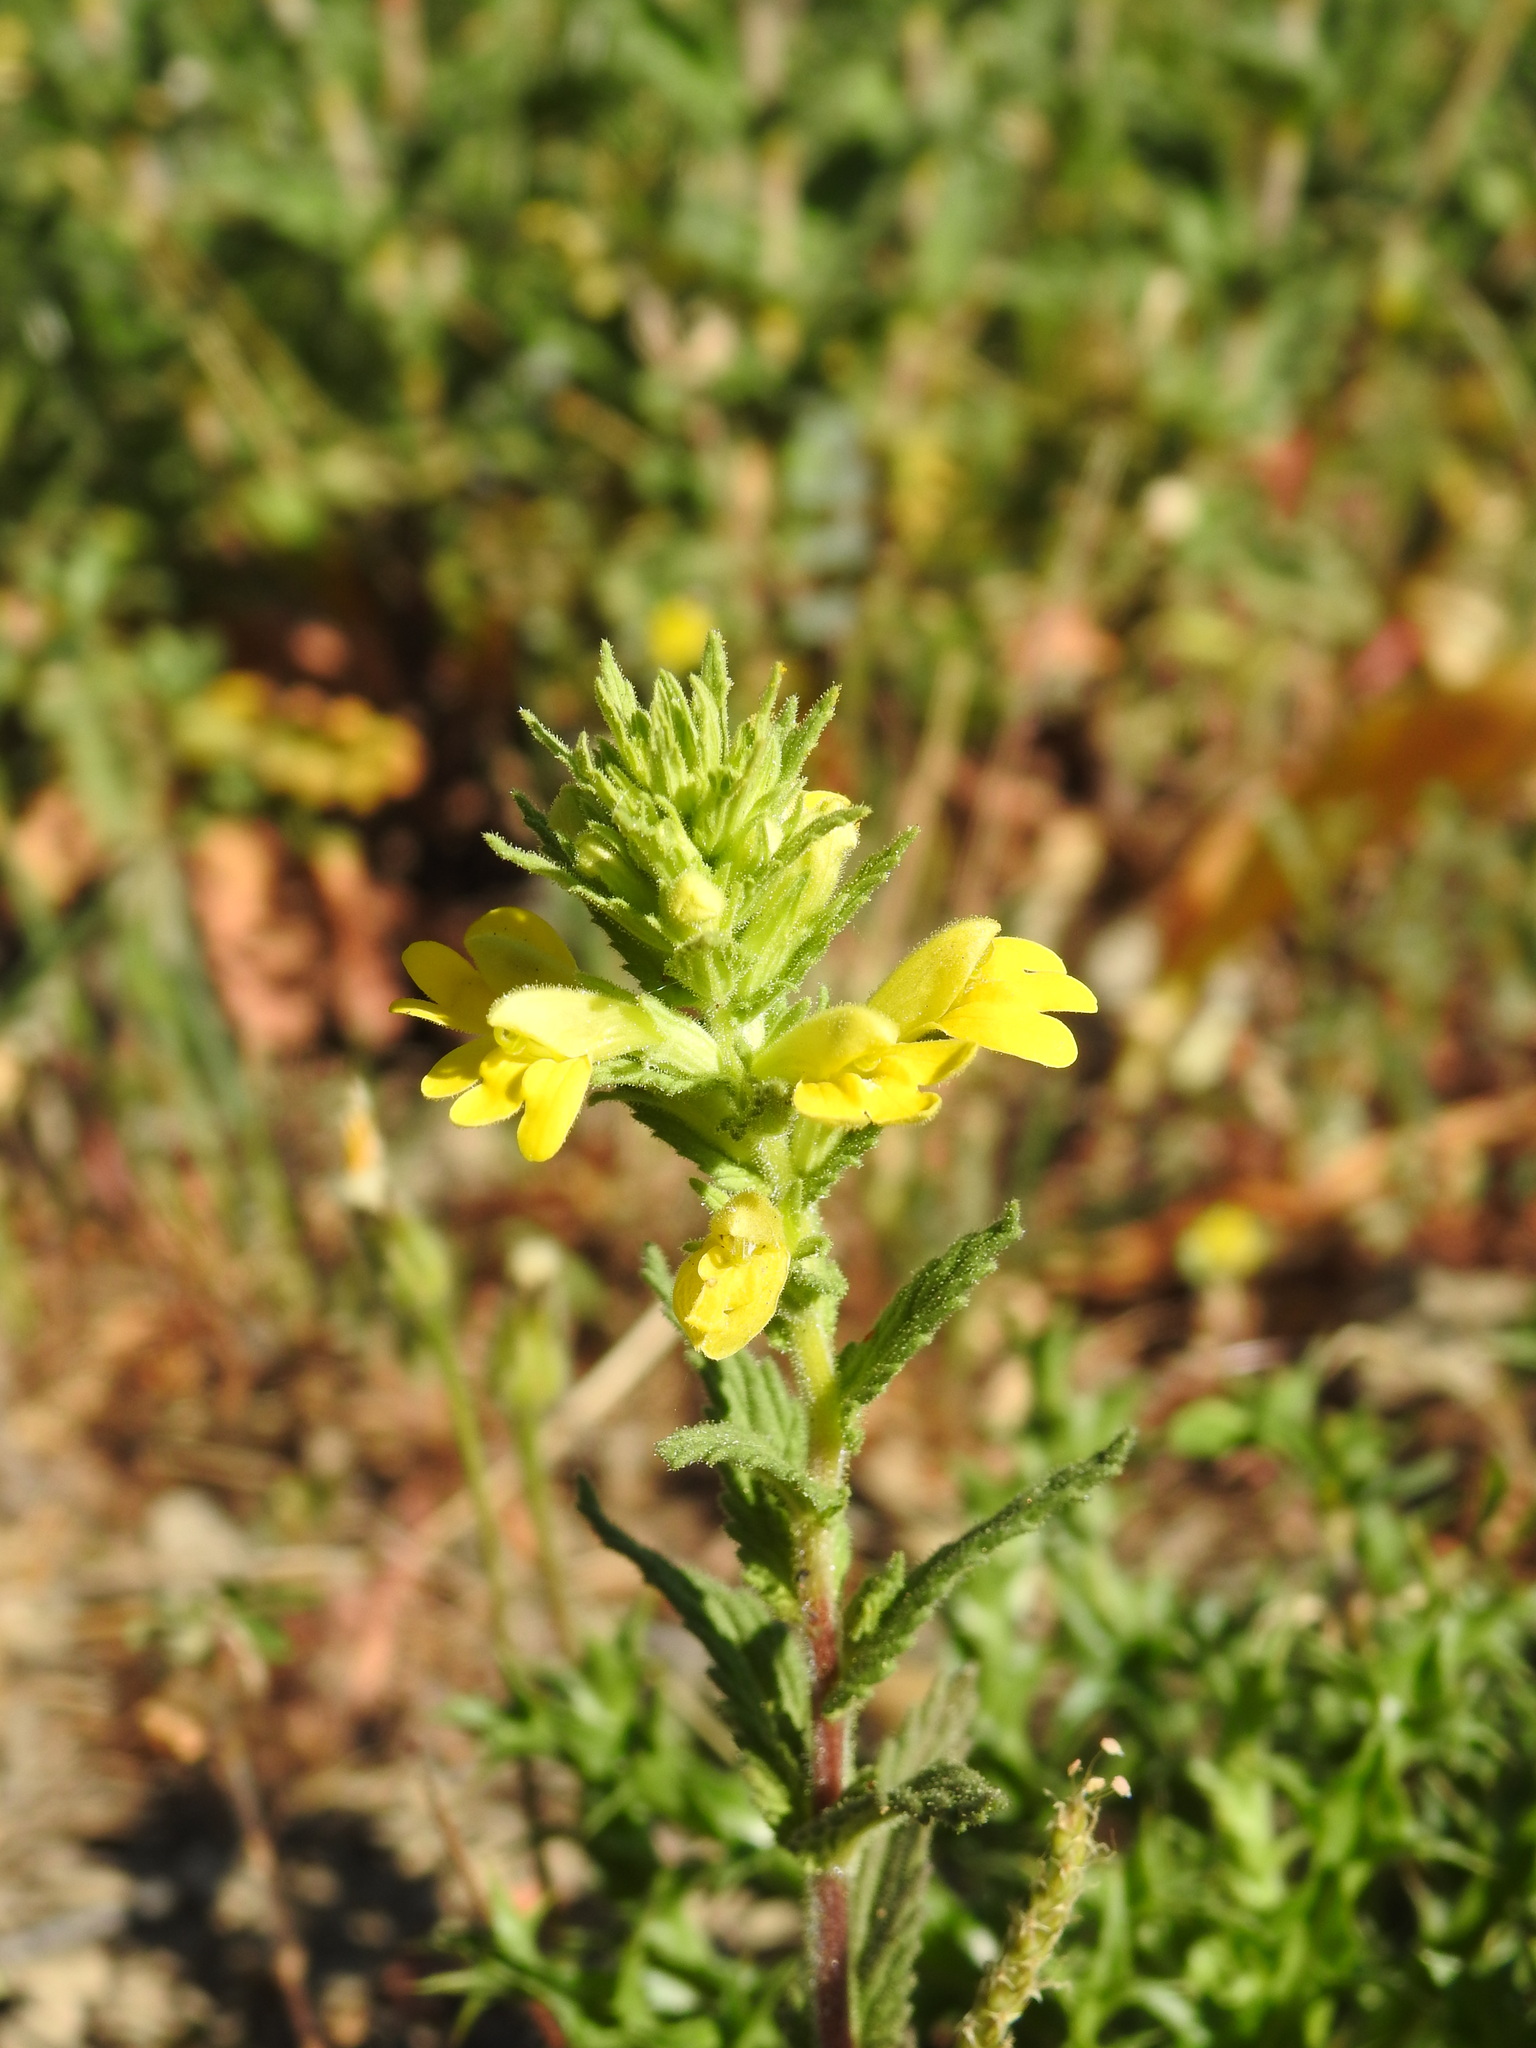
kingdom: Plantae
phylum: Tracheophyta
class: Magnoliopsida
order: Lamiales
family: Orobanchaceae
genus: Bellardia
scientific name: Bellardia viscosa
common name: Sticky parentucellia
